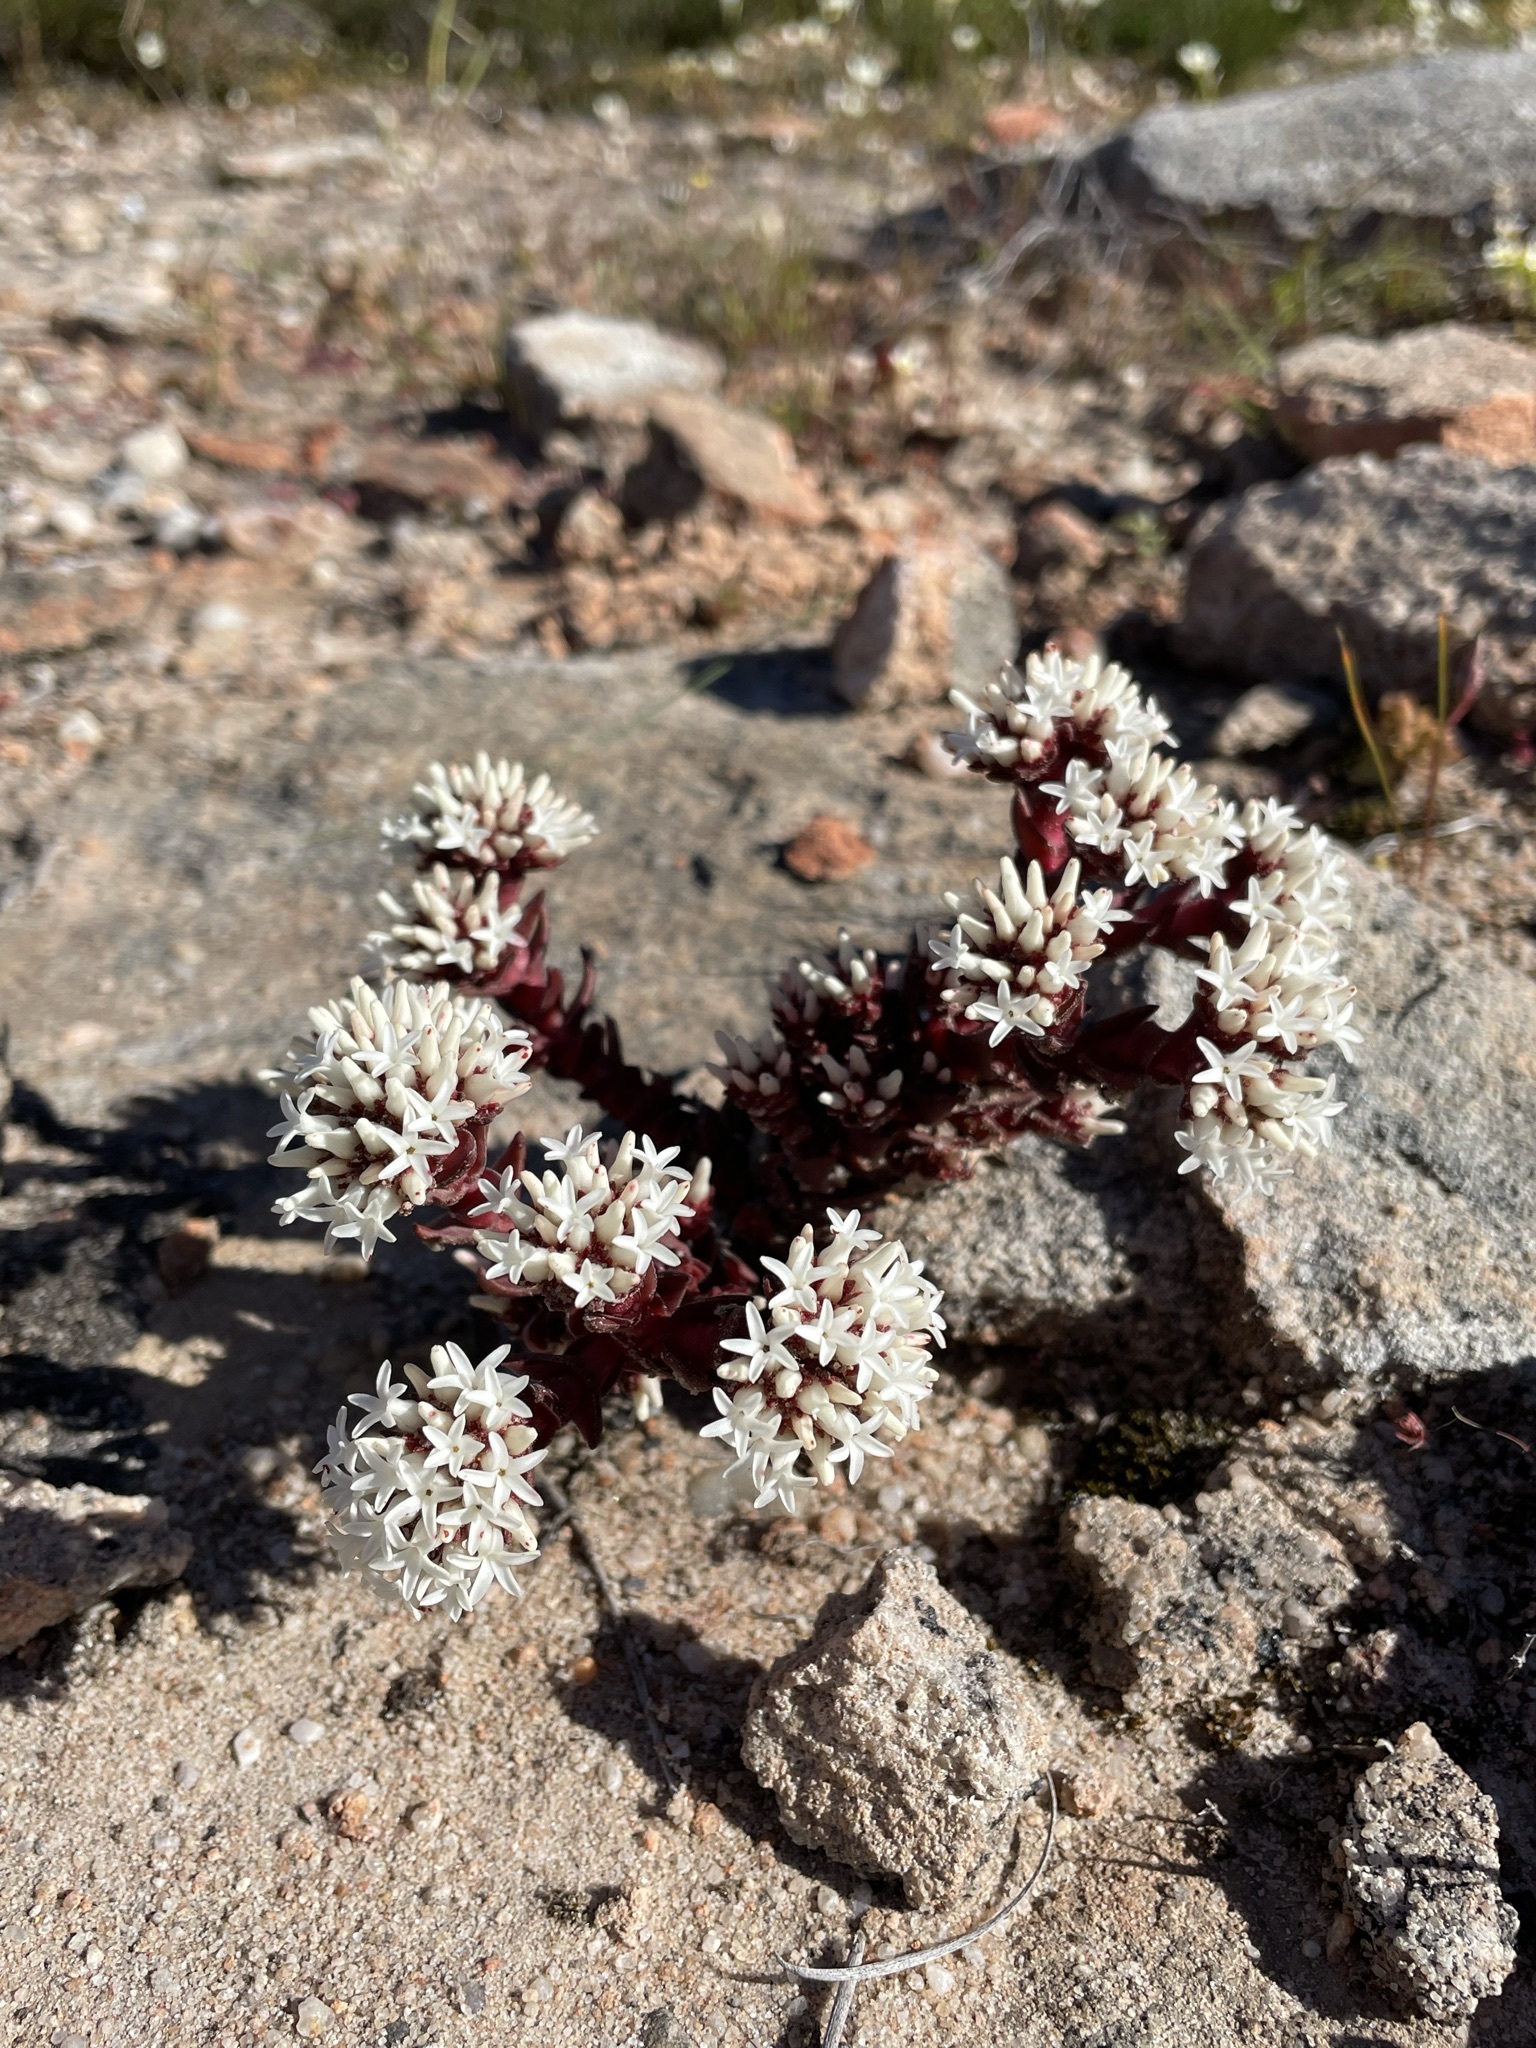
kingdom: Plantae
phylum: Tracheophyta
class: Magnoliopsida
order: Saxifragales
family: Crassulaceae
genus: Crassula
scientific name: Crassula alpestris
